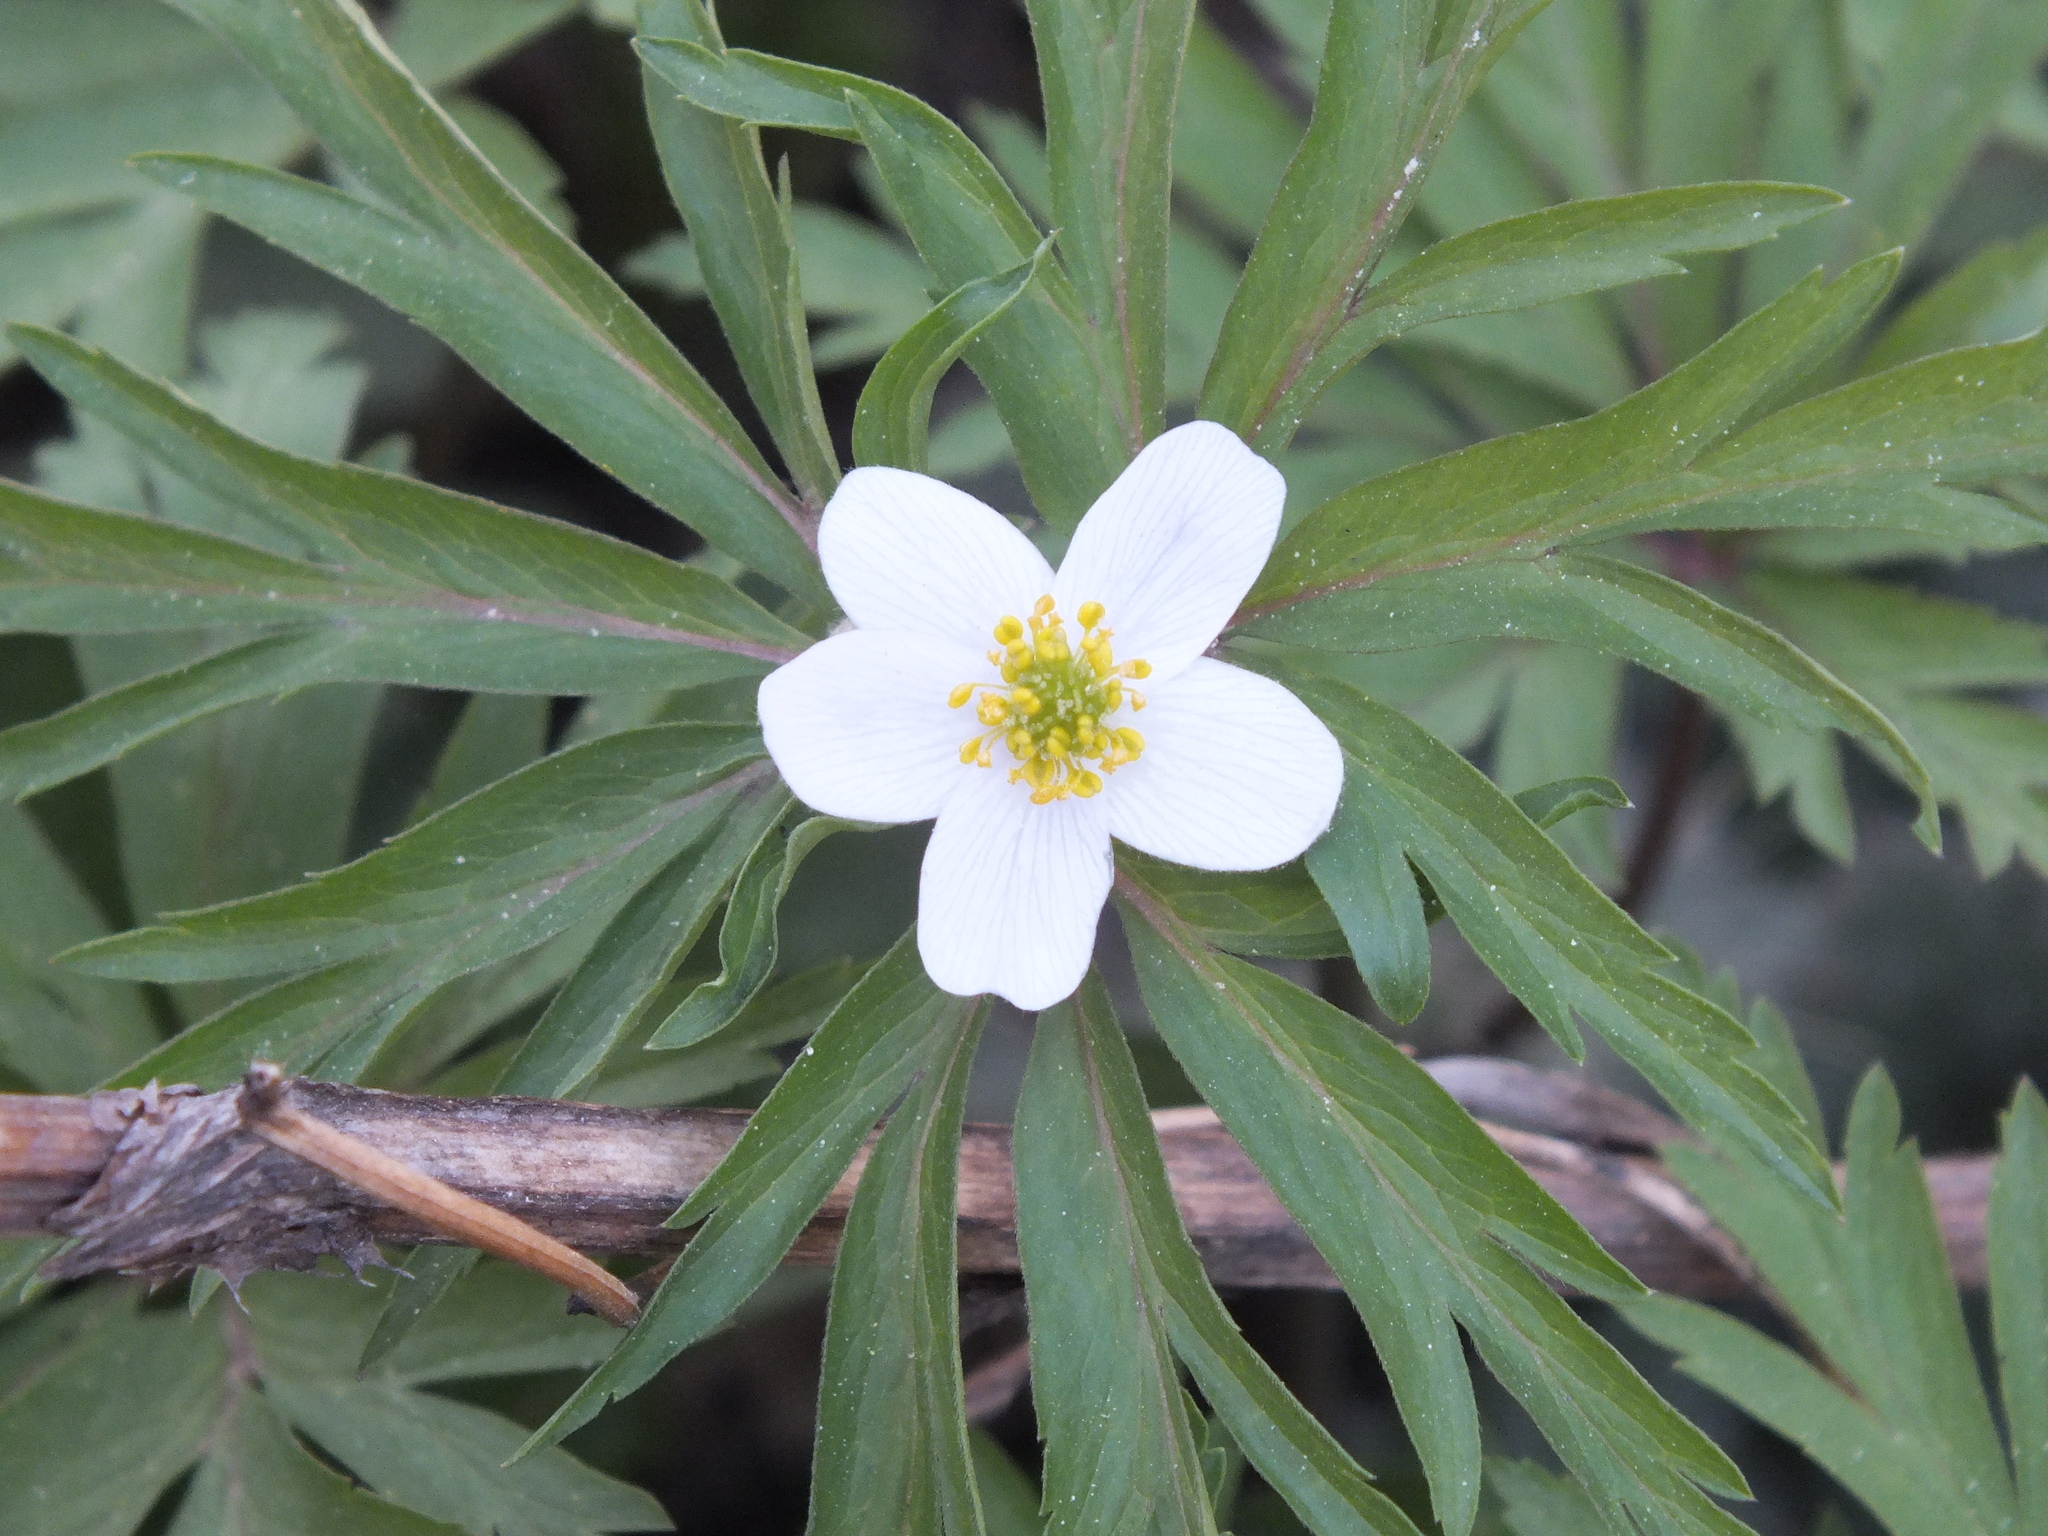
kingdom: Plantae
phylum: Tracheophyta
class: Magnoliopsida
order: Ranunculales
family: Ranunculaceae
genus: Anemone
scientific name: Anemone caerulea
